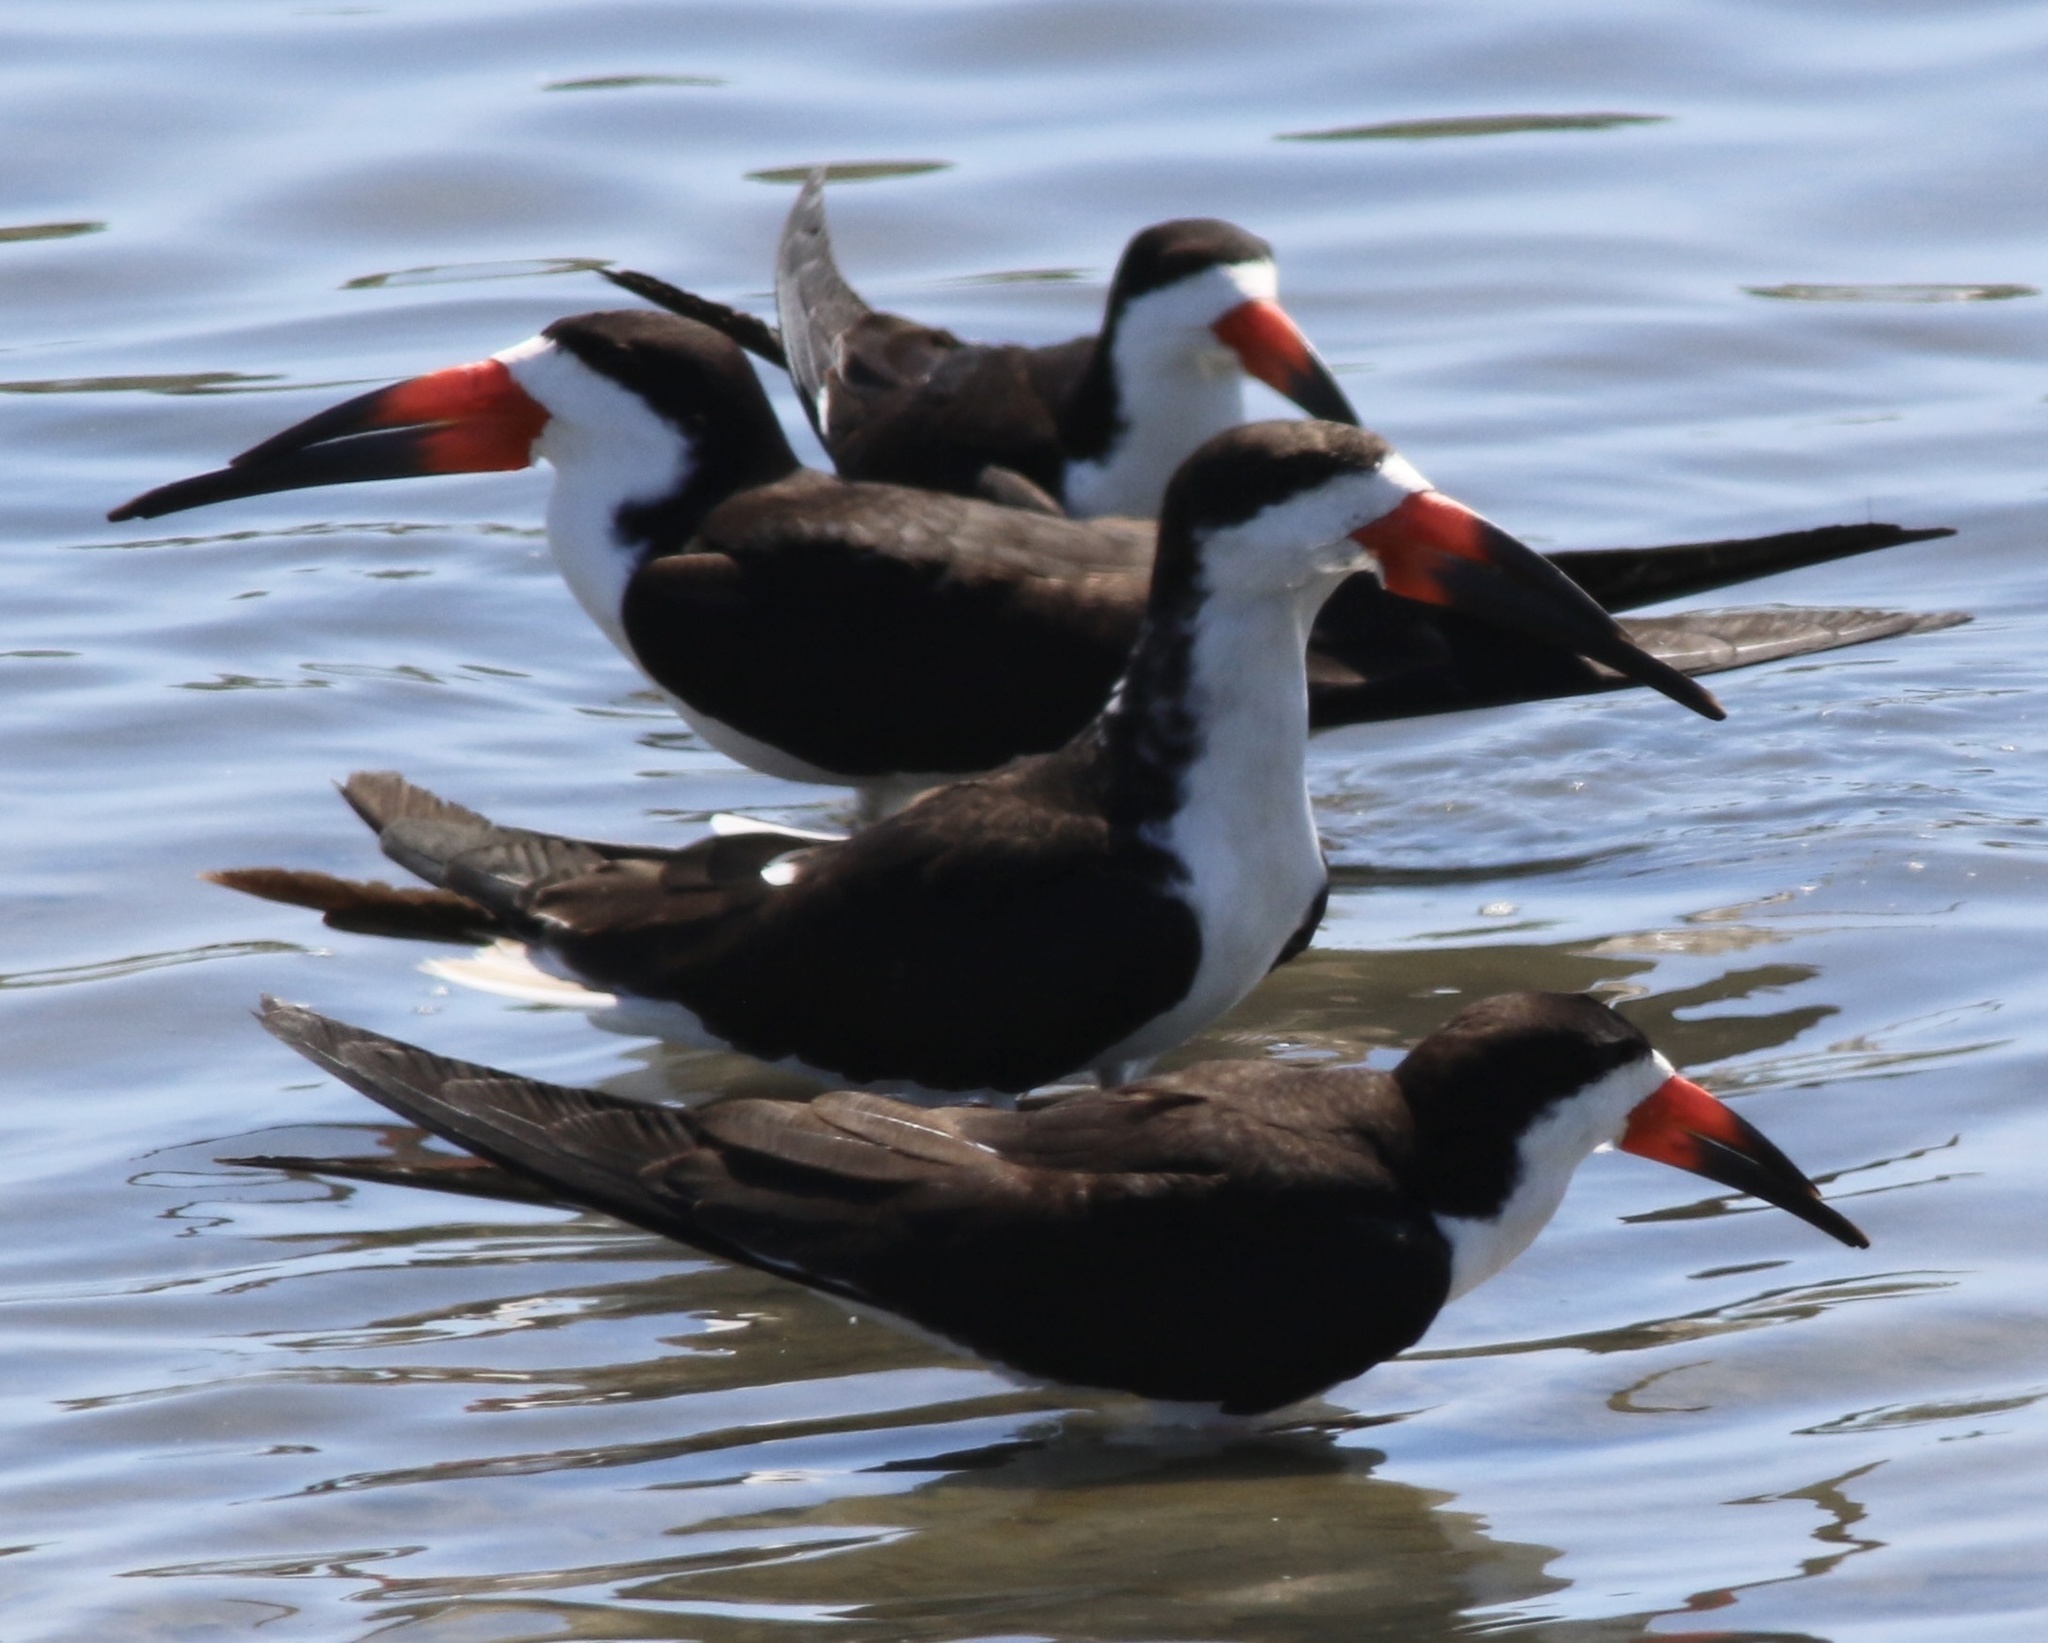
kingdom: Animalia
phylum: Chordata
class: Aves
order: Charadriiformes
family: Laridae
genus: Rynchops
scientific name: Rynchops niger
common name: Black skimmer
